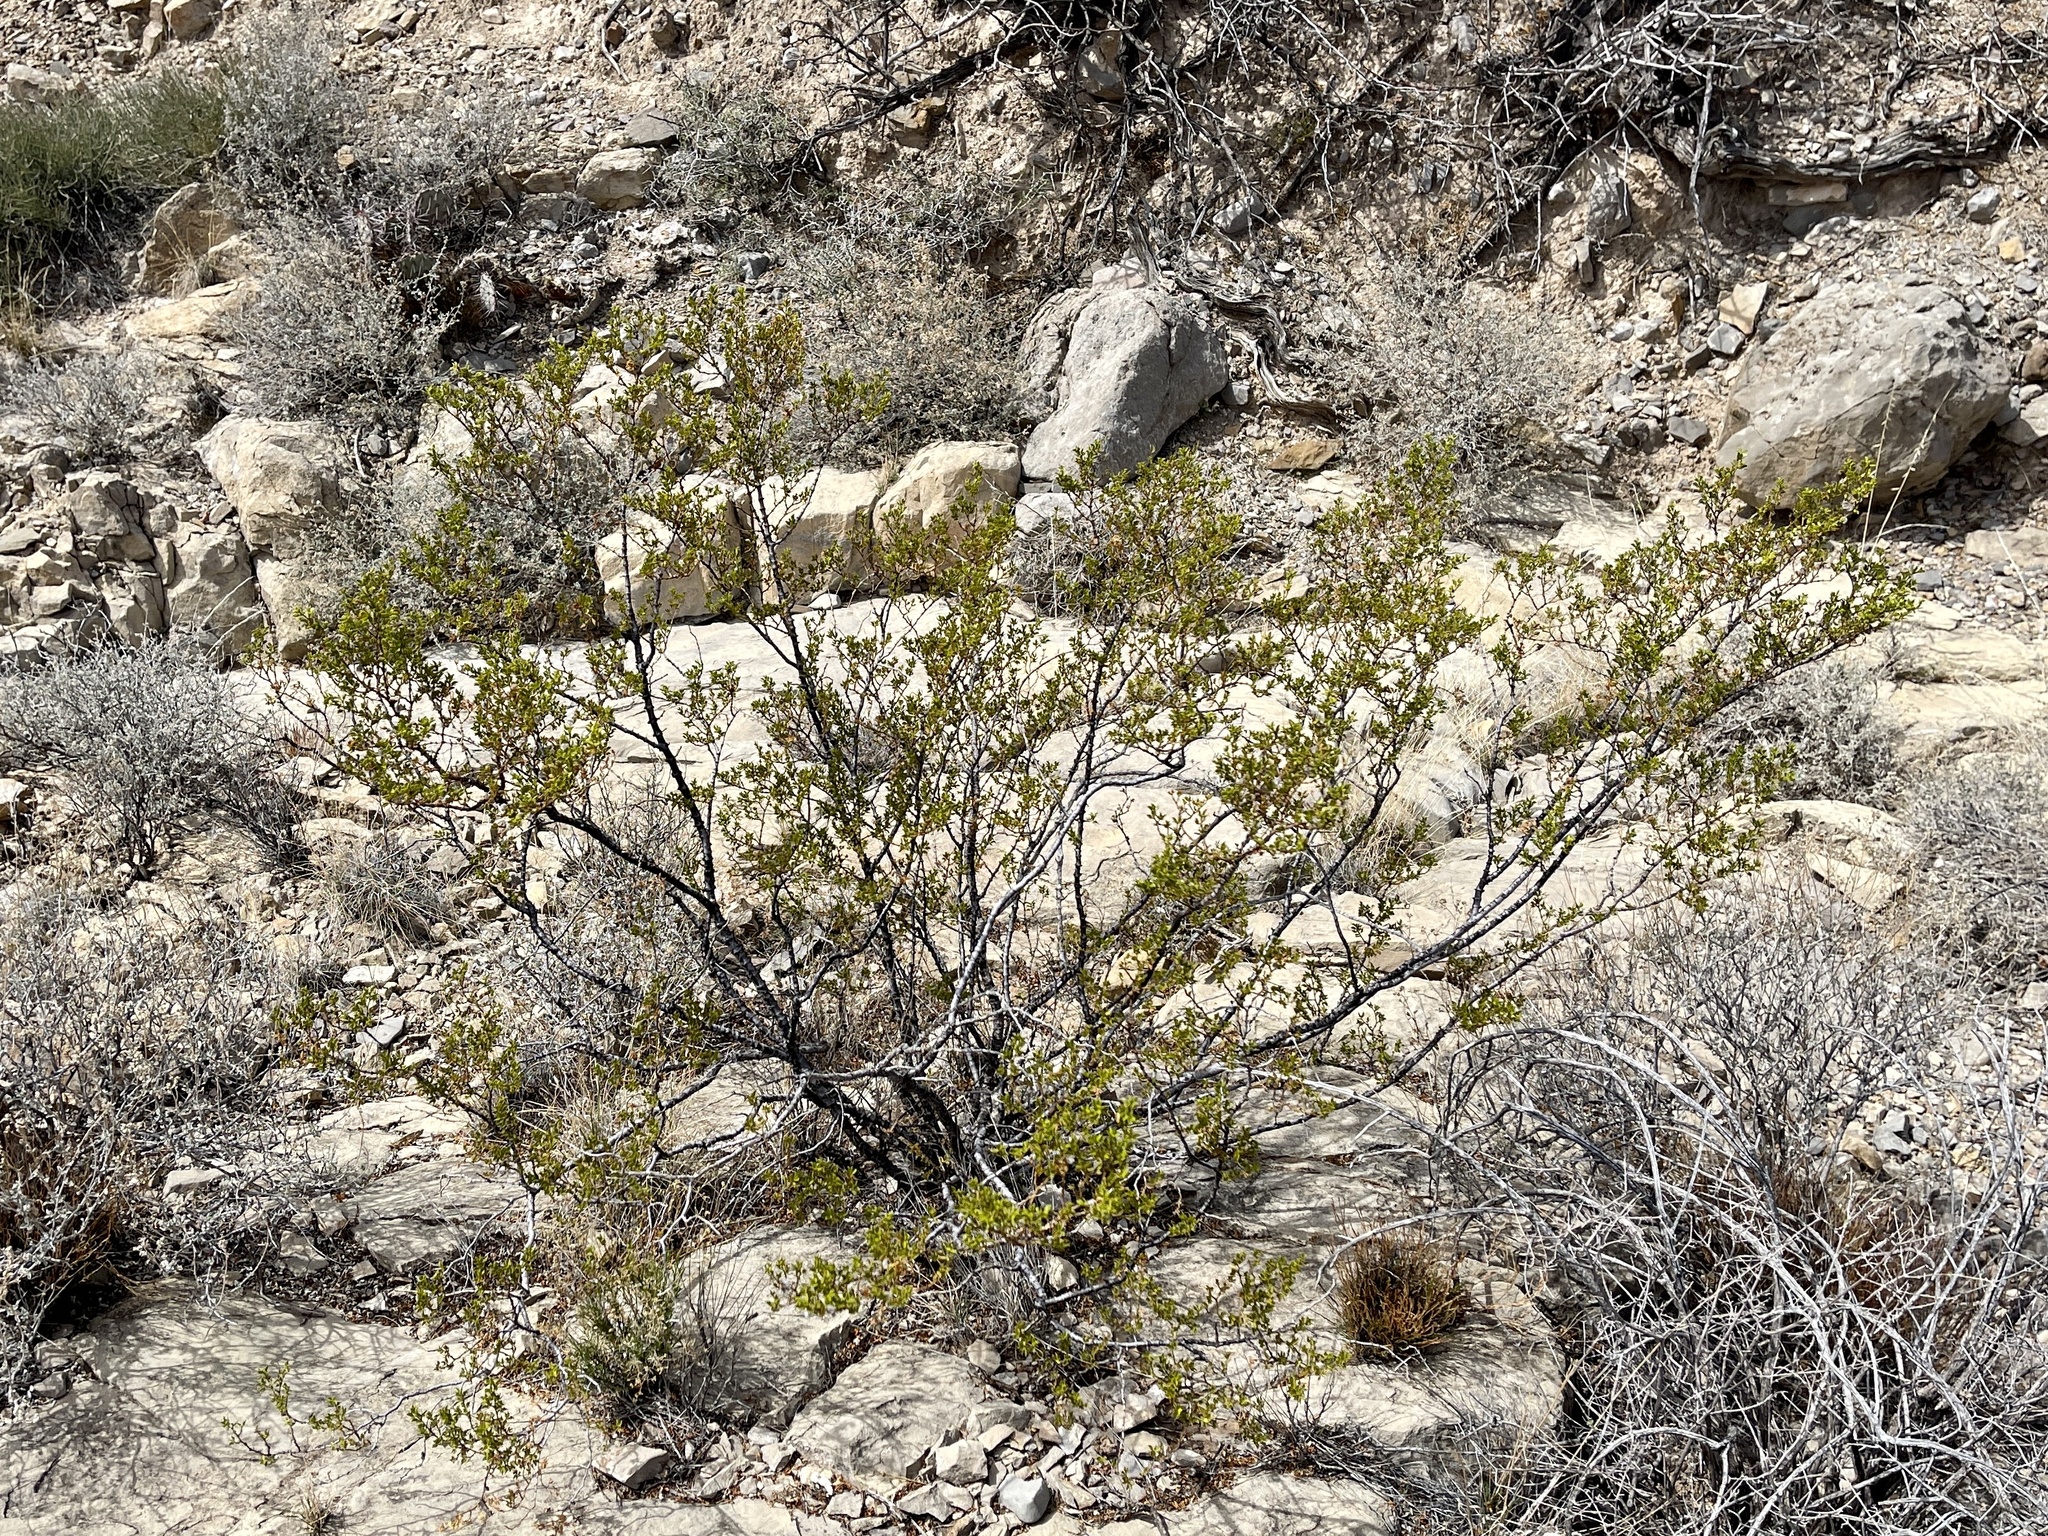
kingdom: Plantae
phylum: Tracheophyta
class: Magnoliopsida
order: Zygophyllales
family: Zygophyllaceae
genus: Larrea
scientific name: Larrea tridentata
